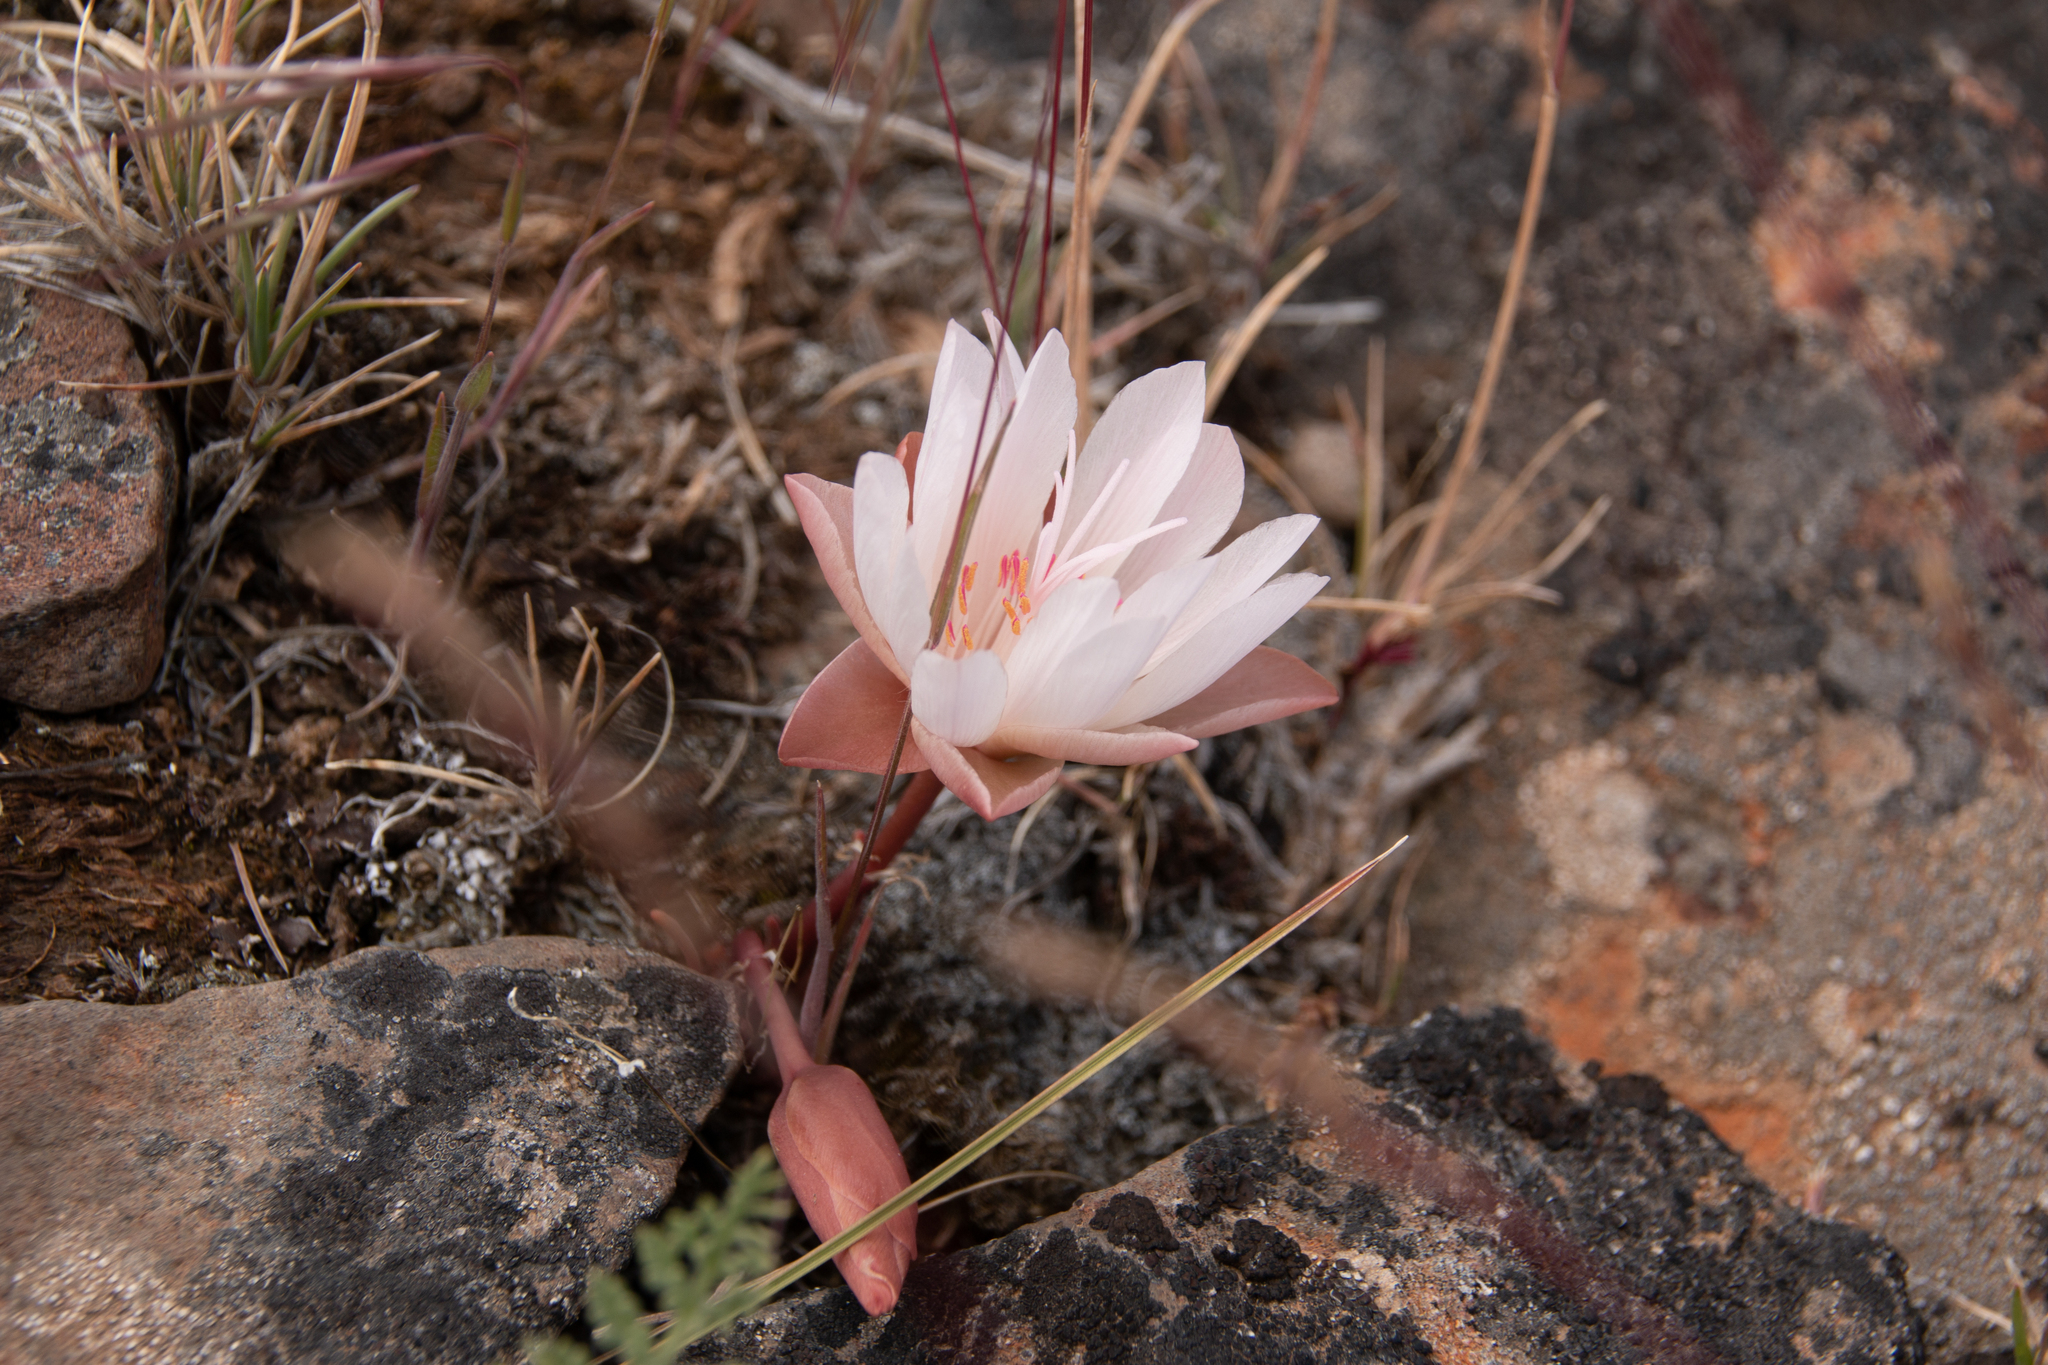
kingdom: Plantae
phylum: Tracheophyta
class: Magnoliopsida
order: Caryophyllales
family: Montiaceae
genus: Lewisia
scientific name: Lewisia rediviva
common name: Bitter-root
